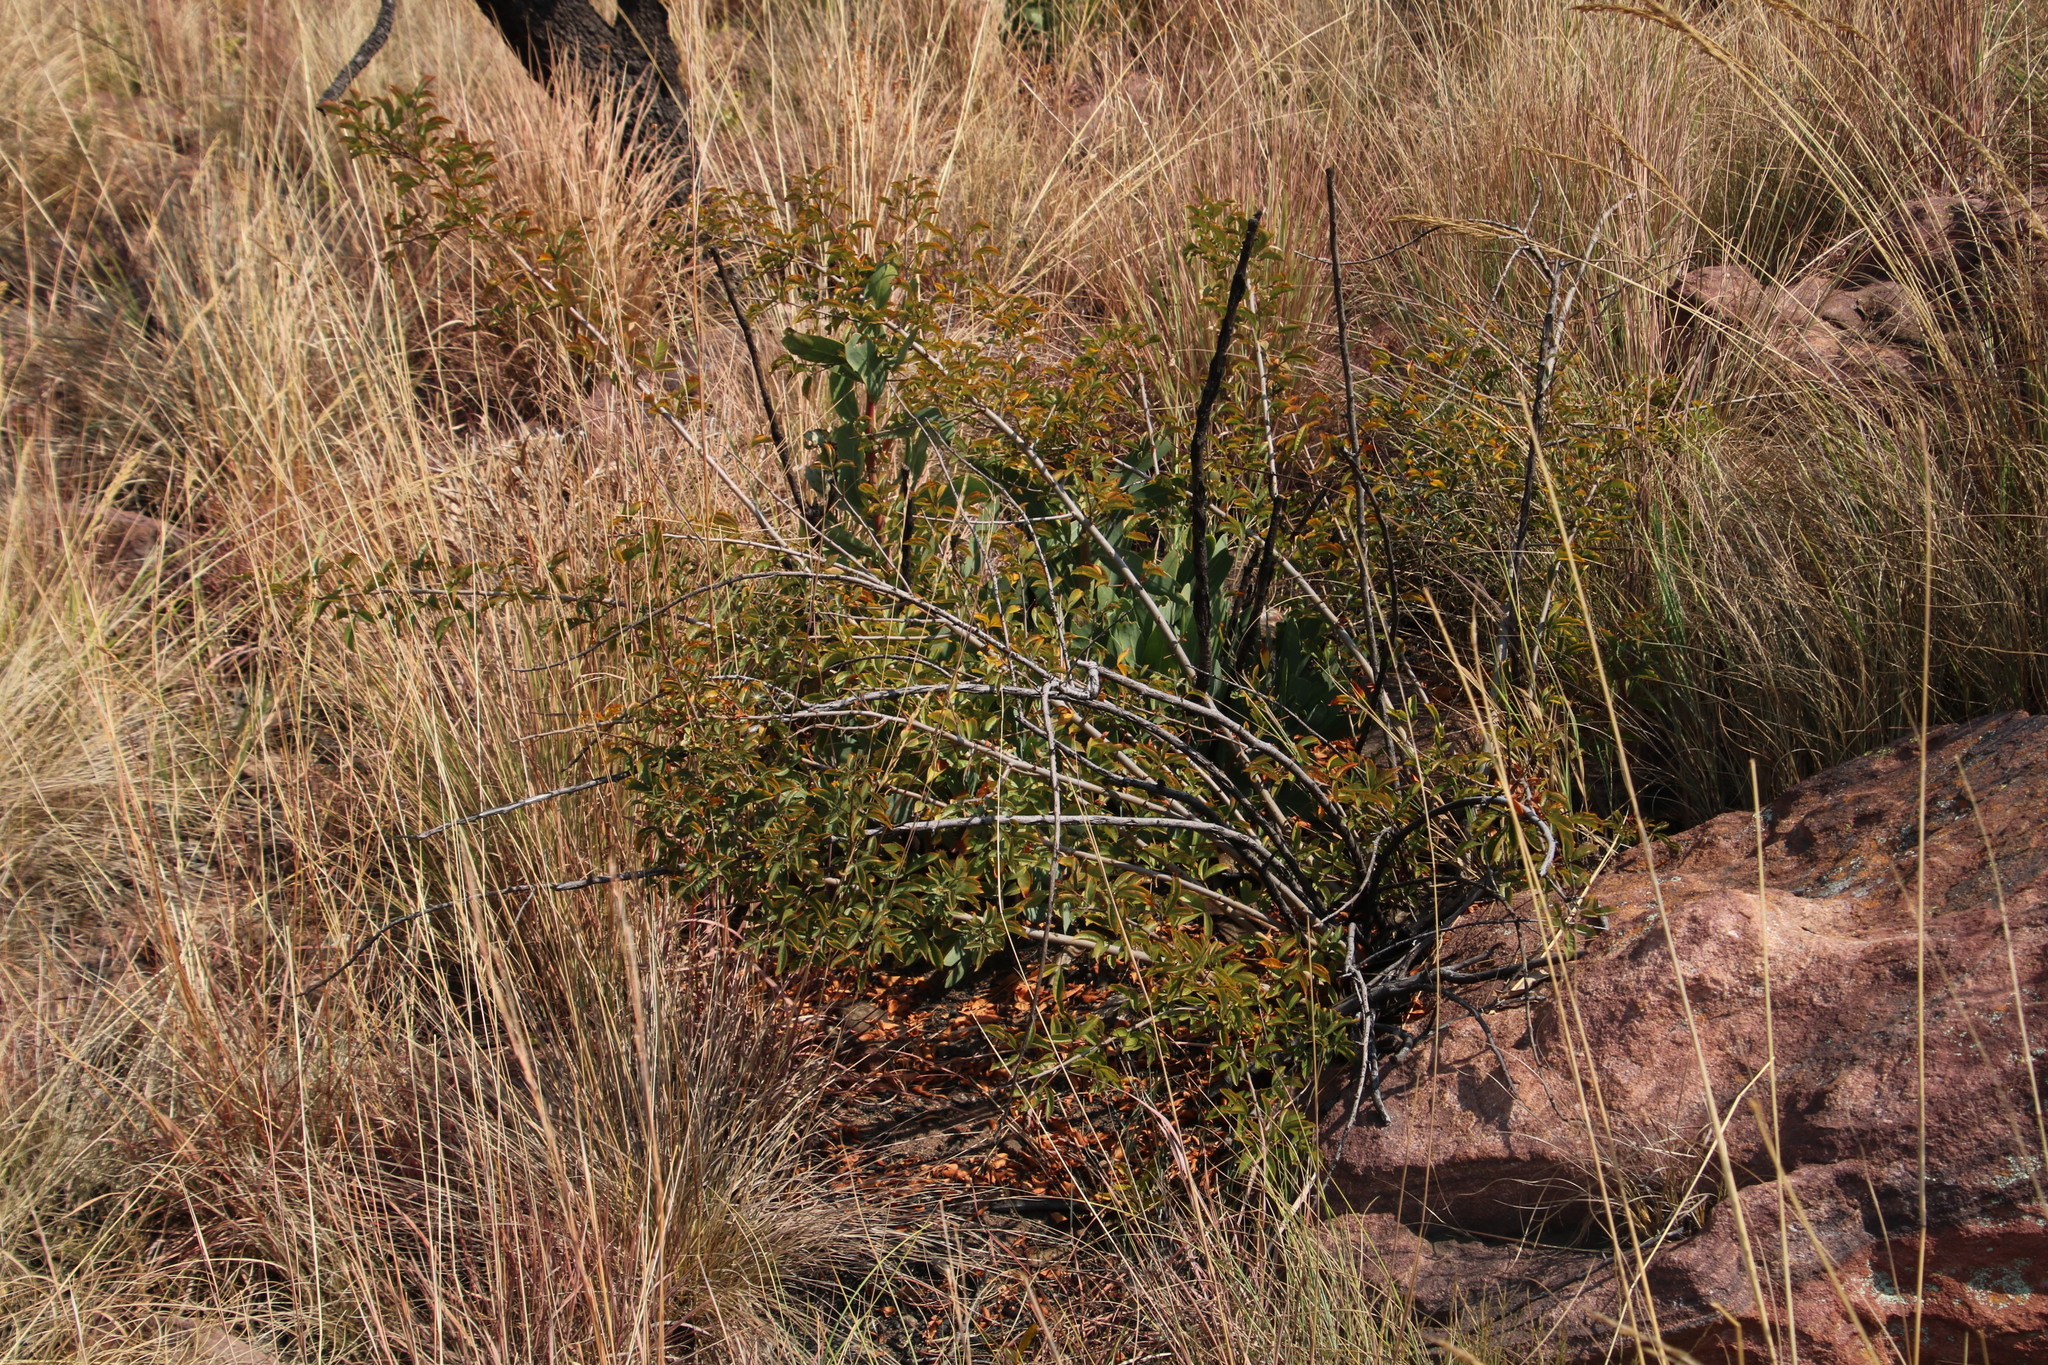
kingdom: Plantae
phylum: Tracheophyta
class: Magnoliopsida
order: Sapindales
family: Anacardiaceae
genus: Searsia
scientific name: Searsia rigida
